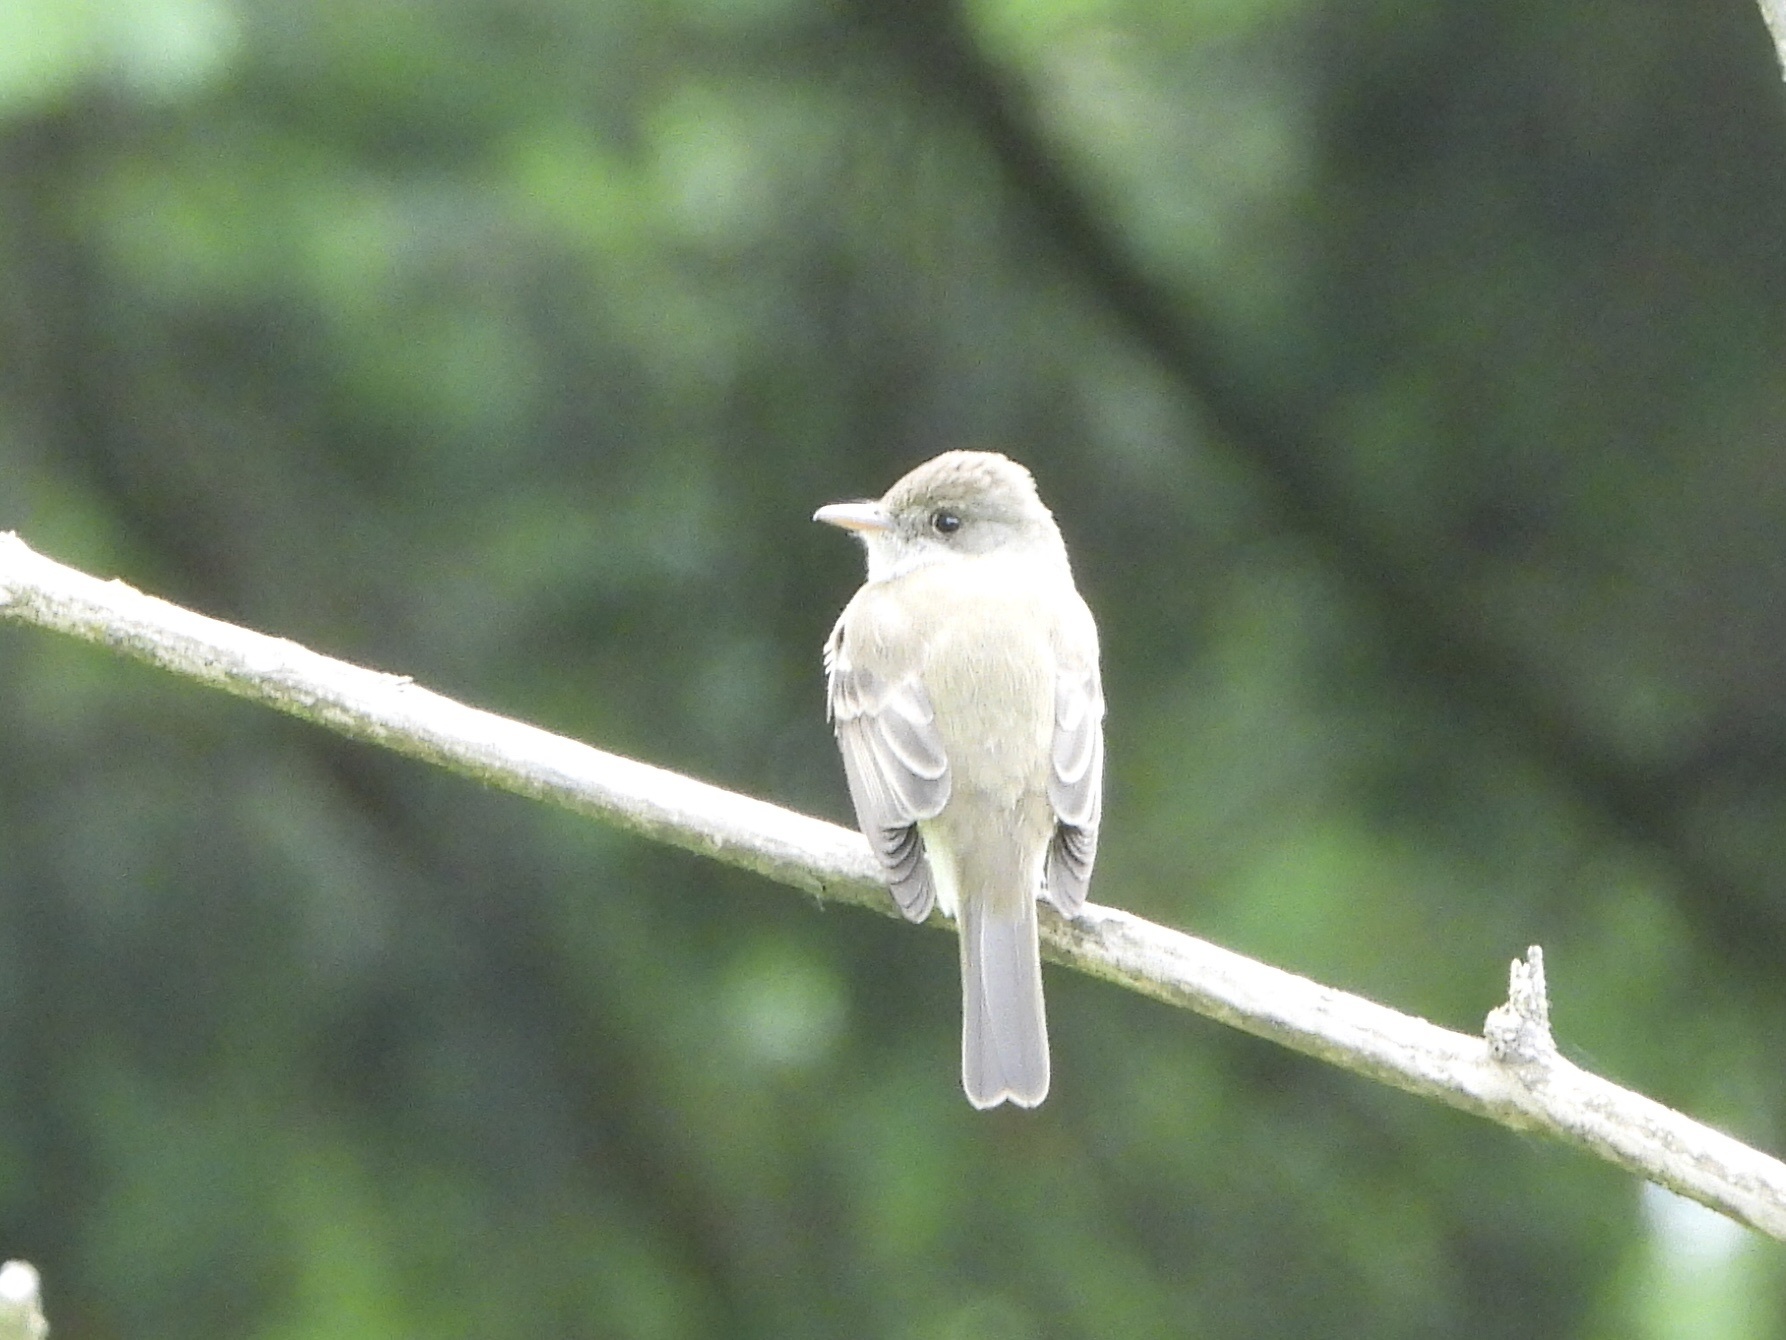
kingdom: Animalia
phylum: Chordata
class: Aves
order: Passeriformes
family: Tyrannidae
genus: Empidonax
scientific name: Empidonax traillii
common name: Willow flycatcher
